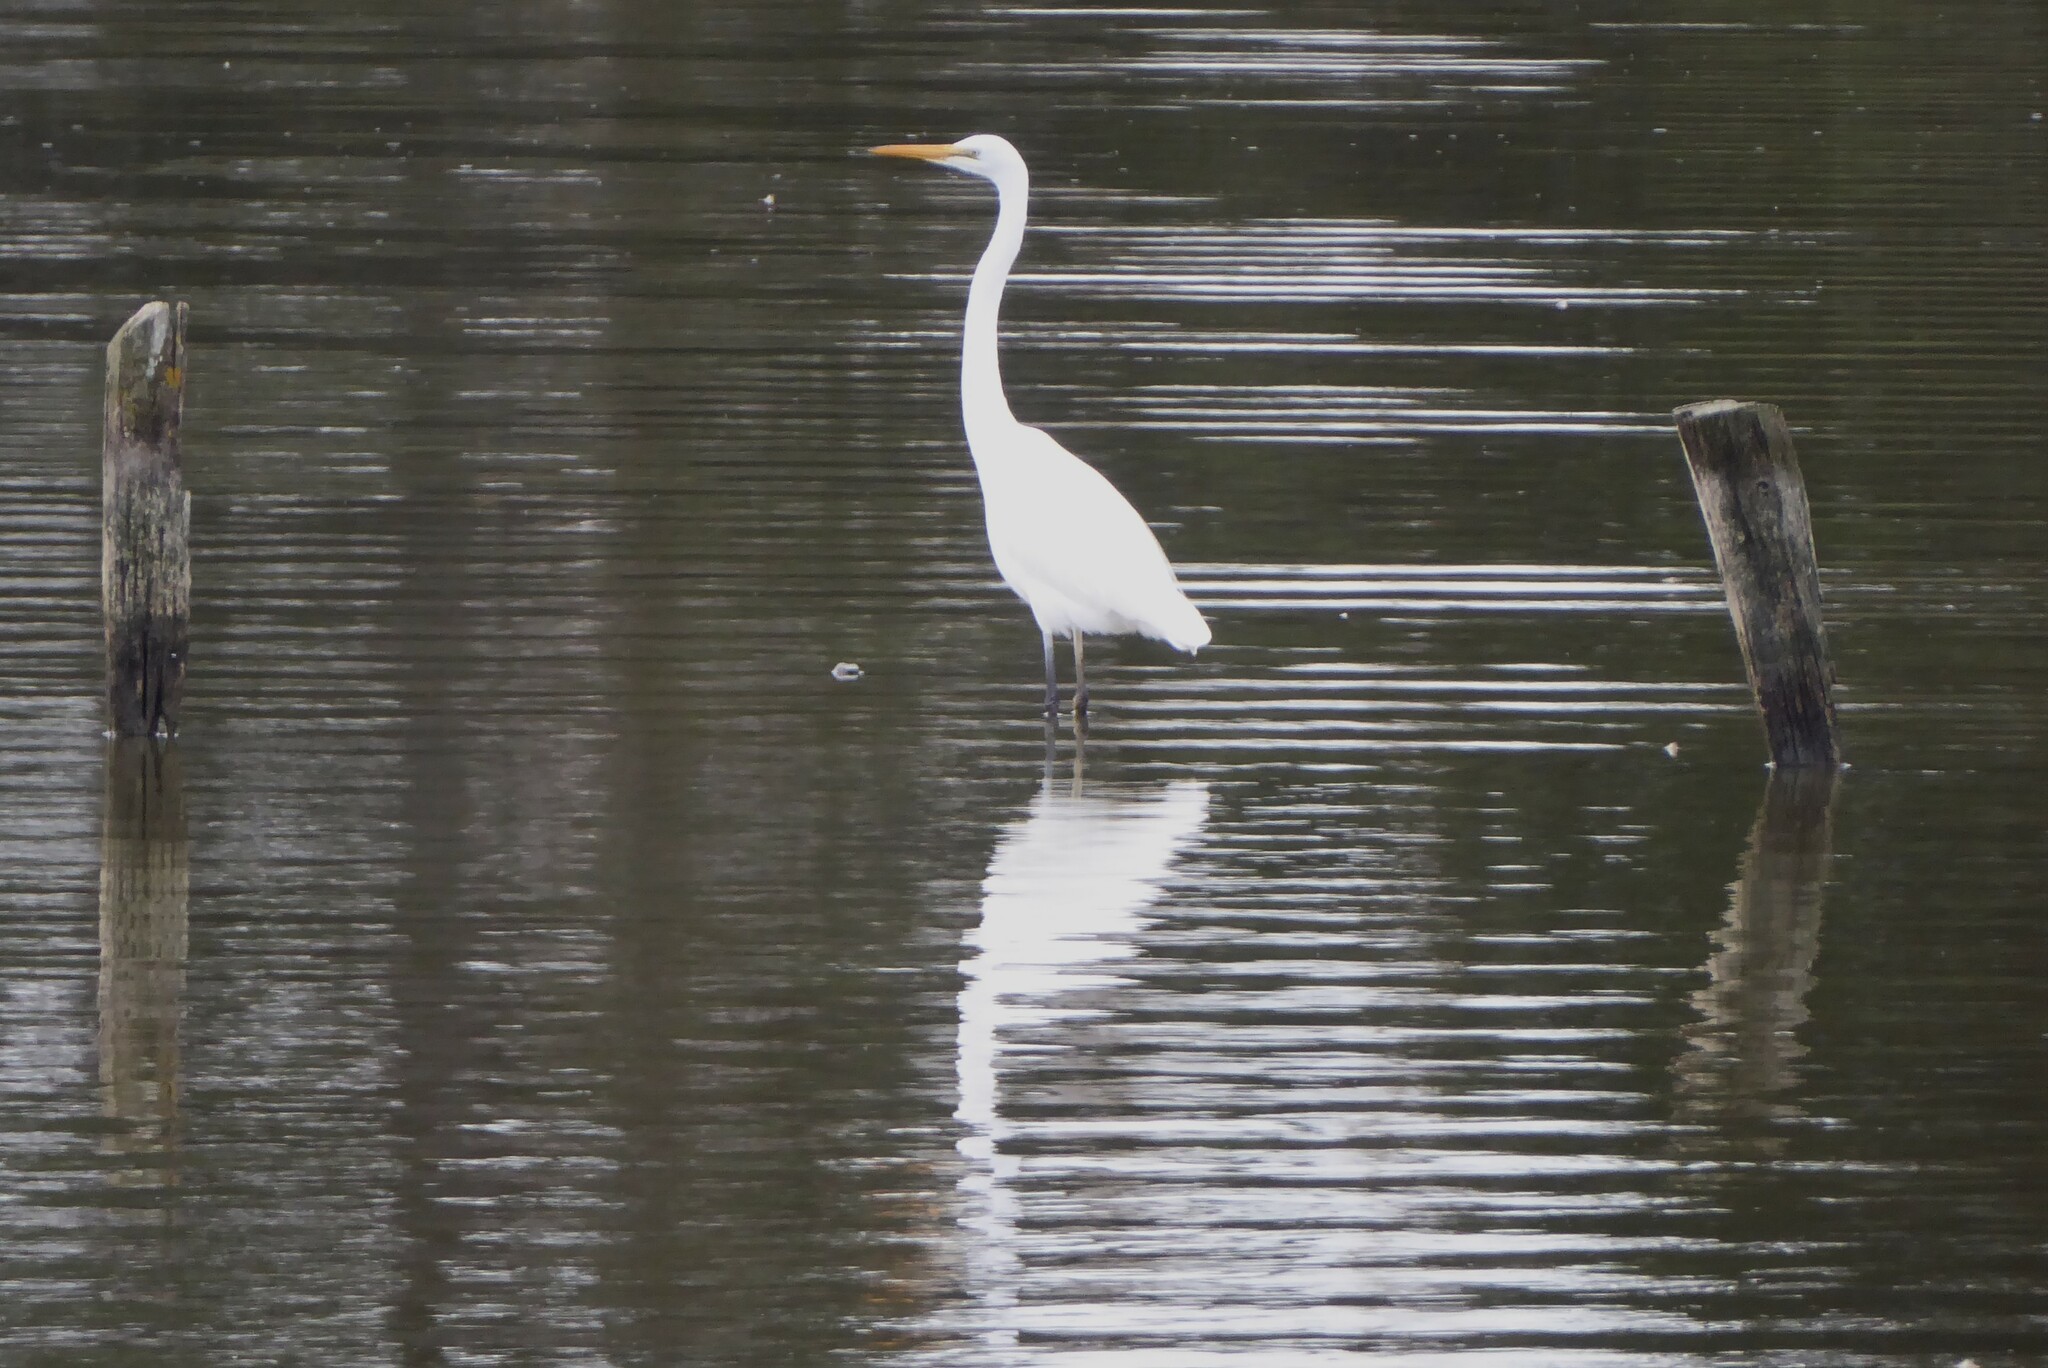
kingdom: Animalia
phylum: Chordata
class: Aves
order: Pelecaniformes
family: Ardeidae
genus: Ardea
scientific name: Ardea modesta
